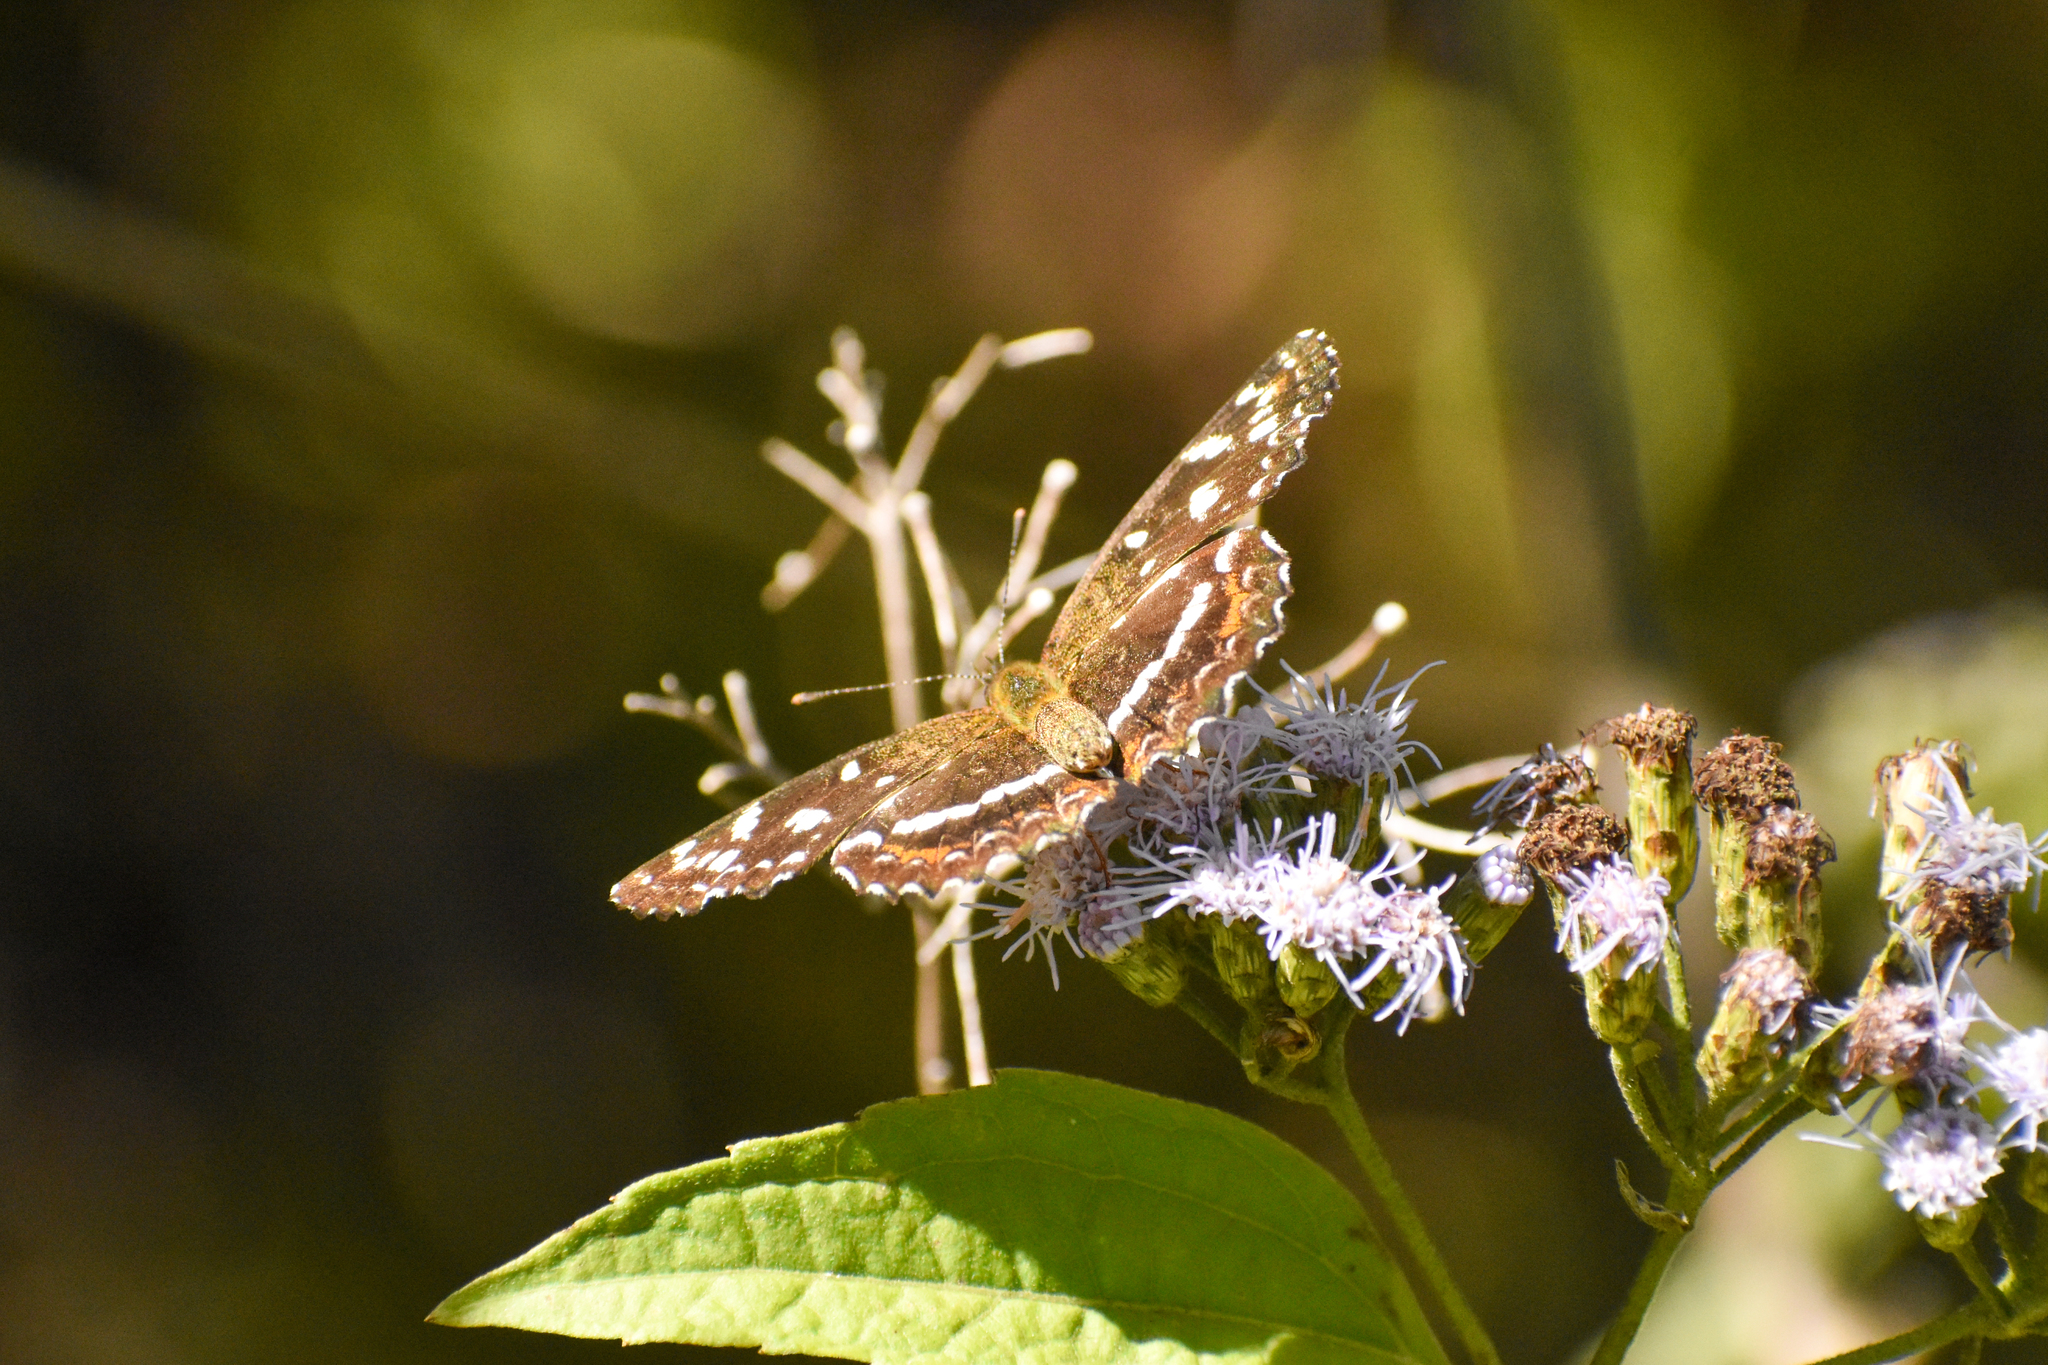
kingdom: Animalia
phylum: Arthropoda
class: Insecta
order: Lepidoptera
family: Nymphalidae
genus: Ortilia
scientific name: Ortilia ithra
